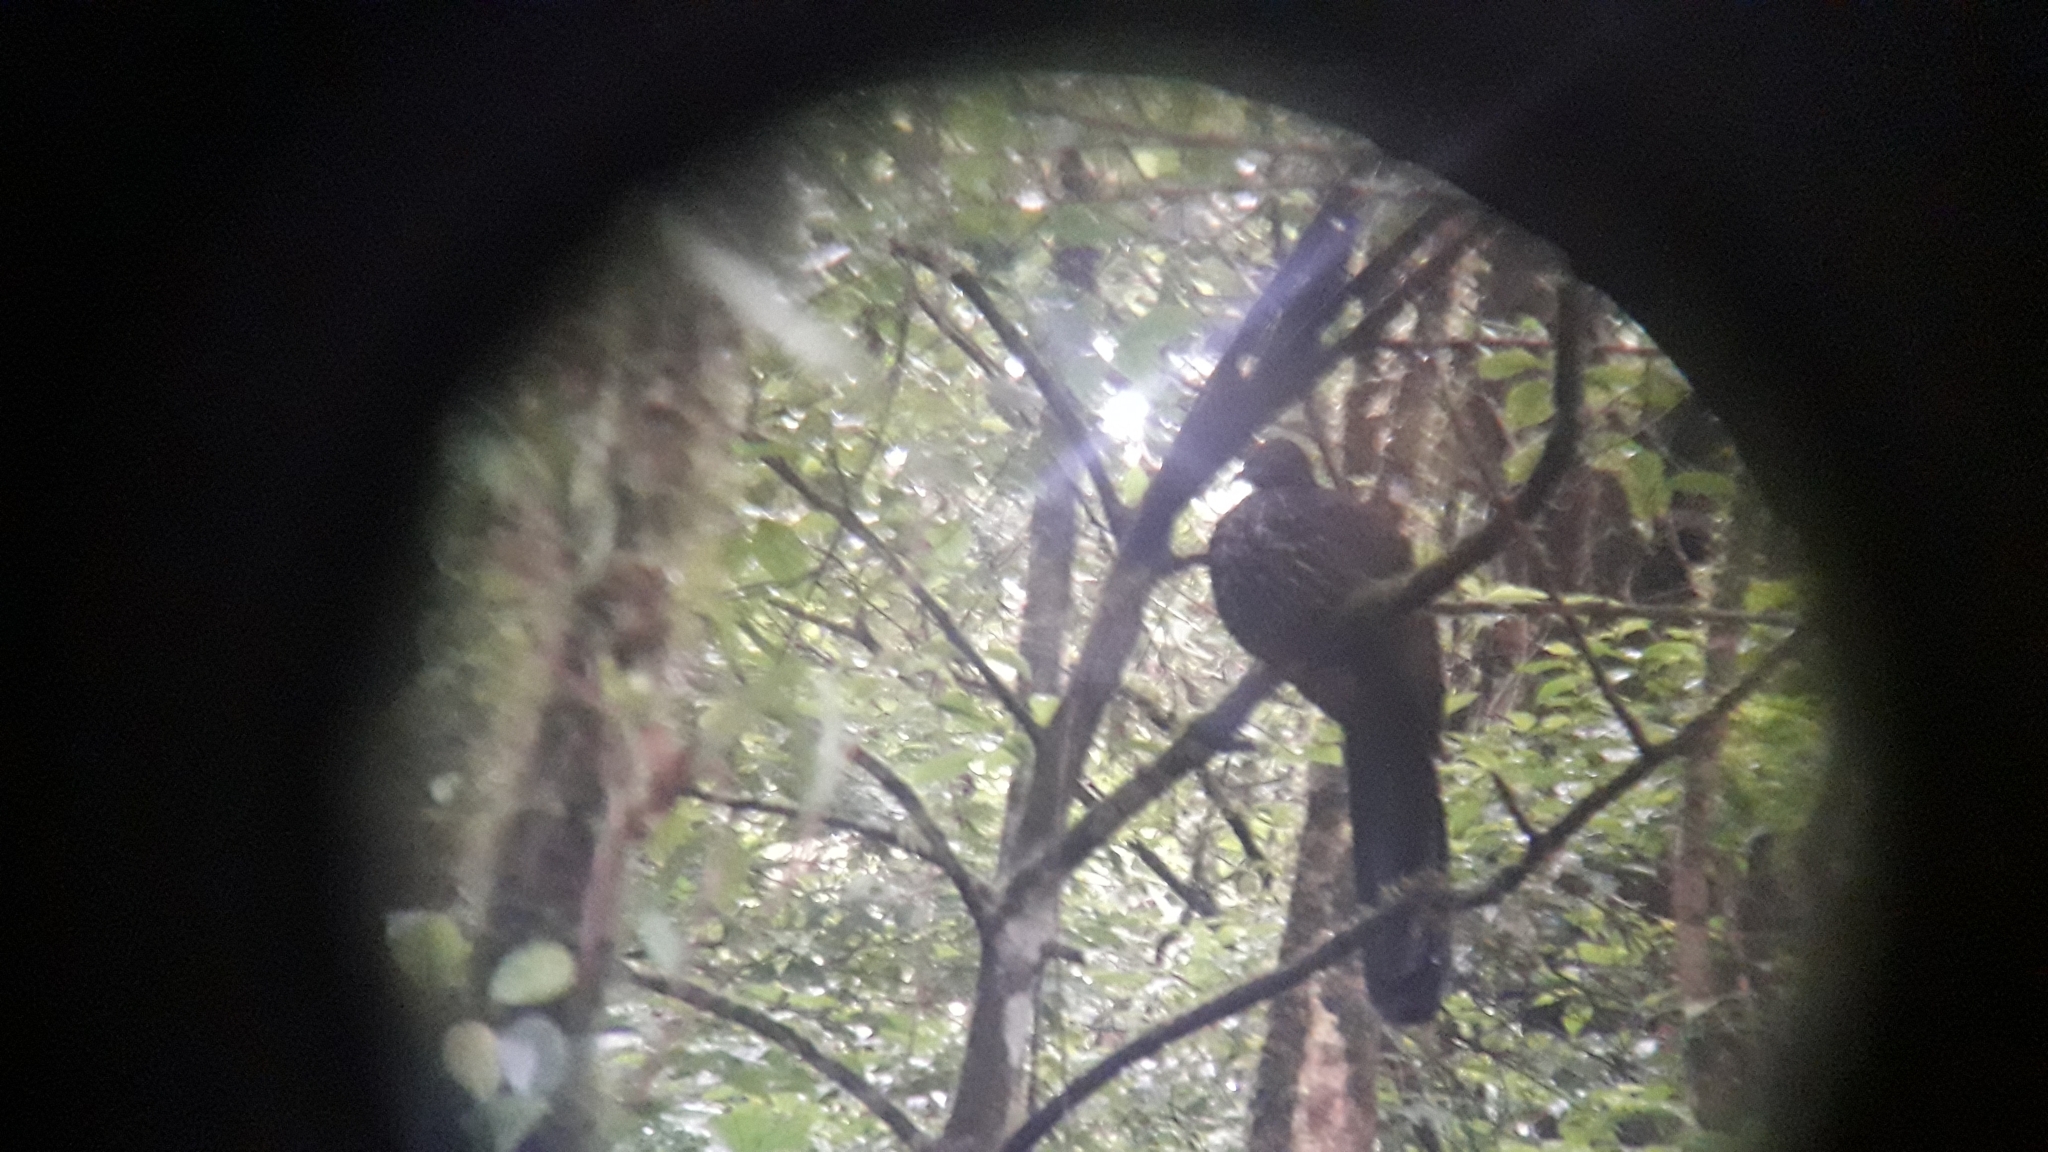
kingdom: Animalia
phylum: Chordata
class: Aves
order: Galliformes
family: Cracidae
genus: Penelope
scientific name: Penelope purpurascens
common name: Crested guan
